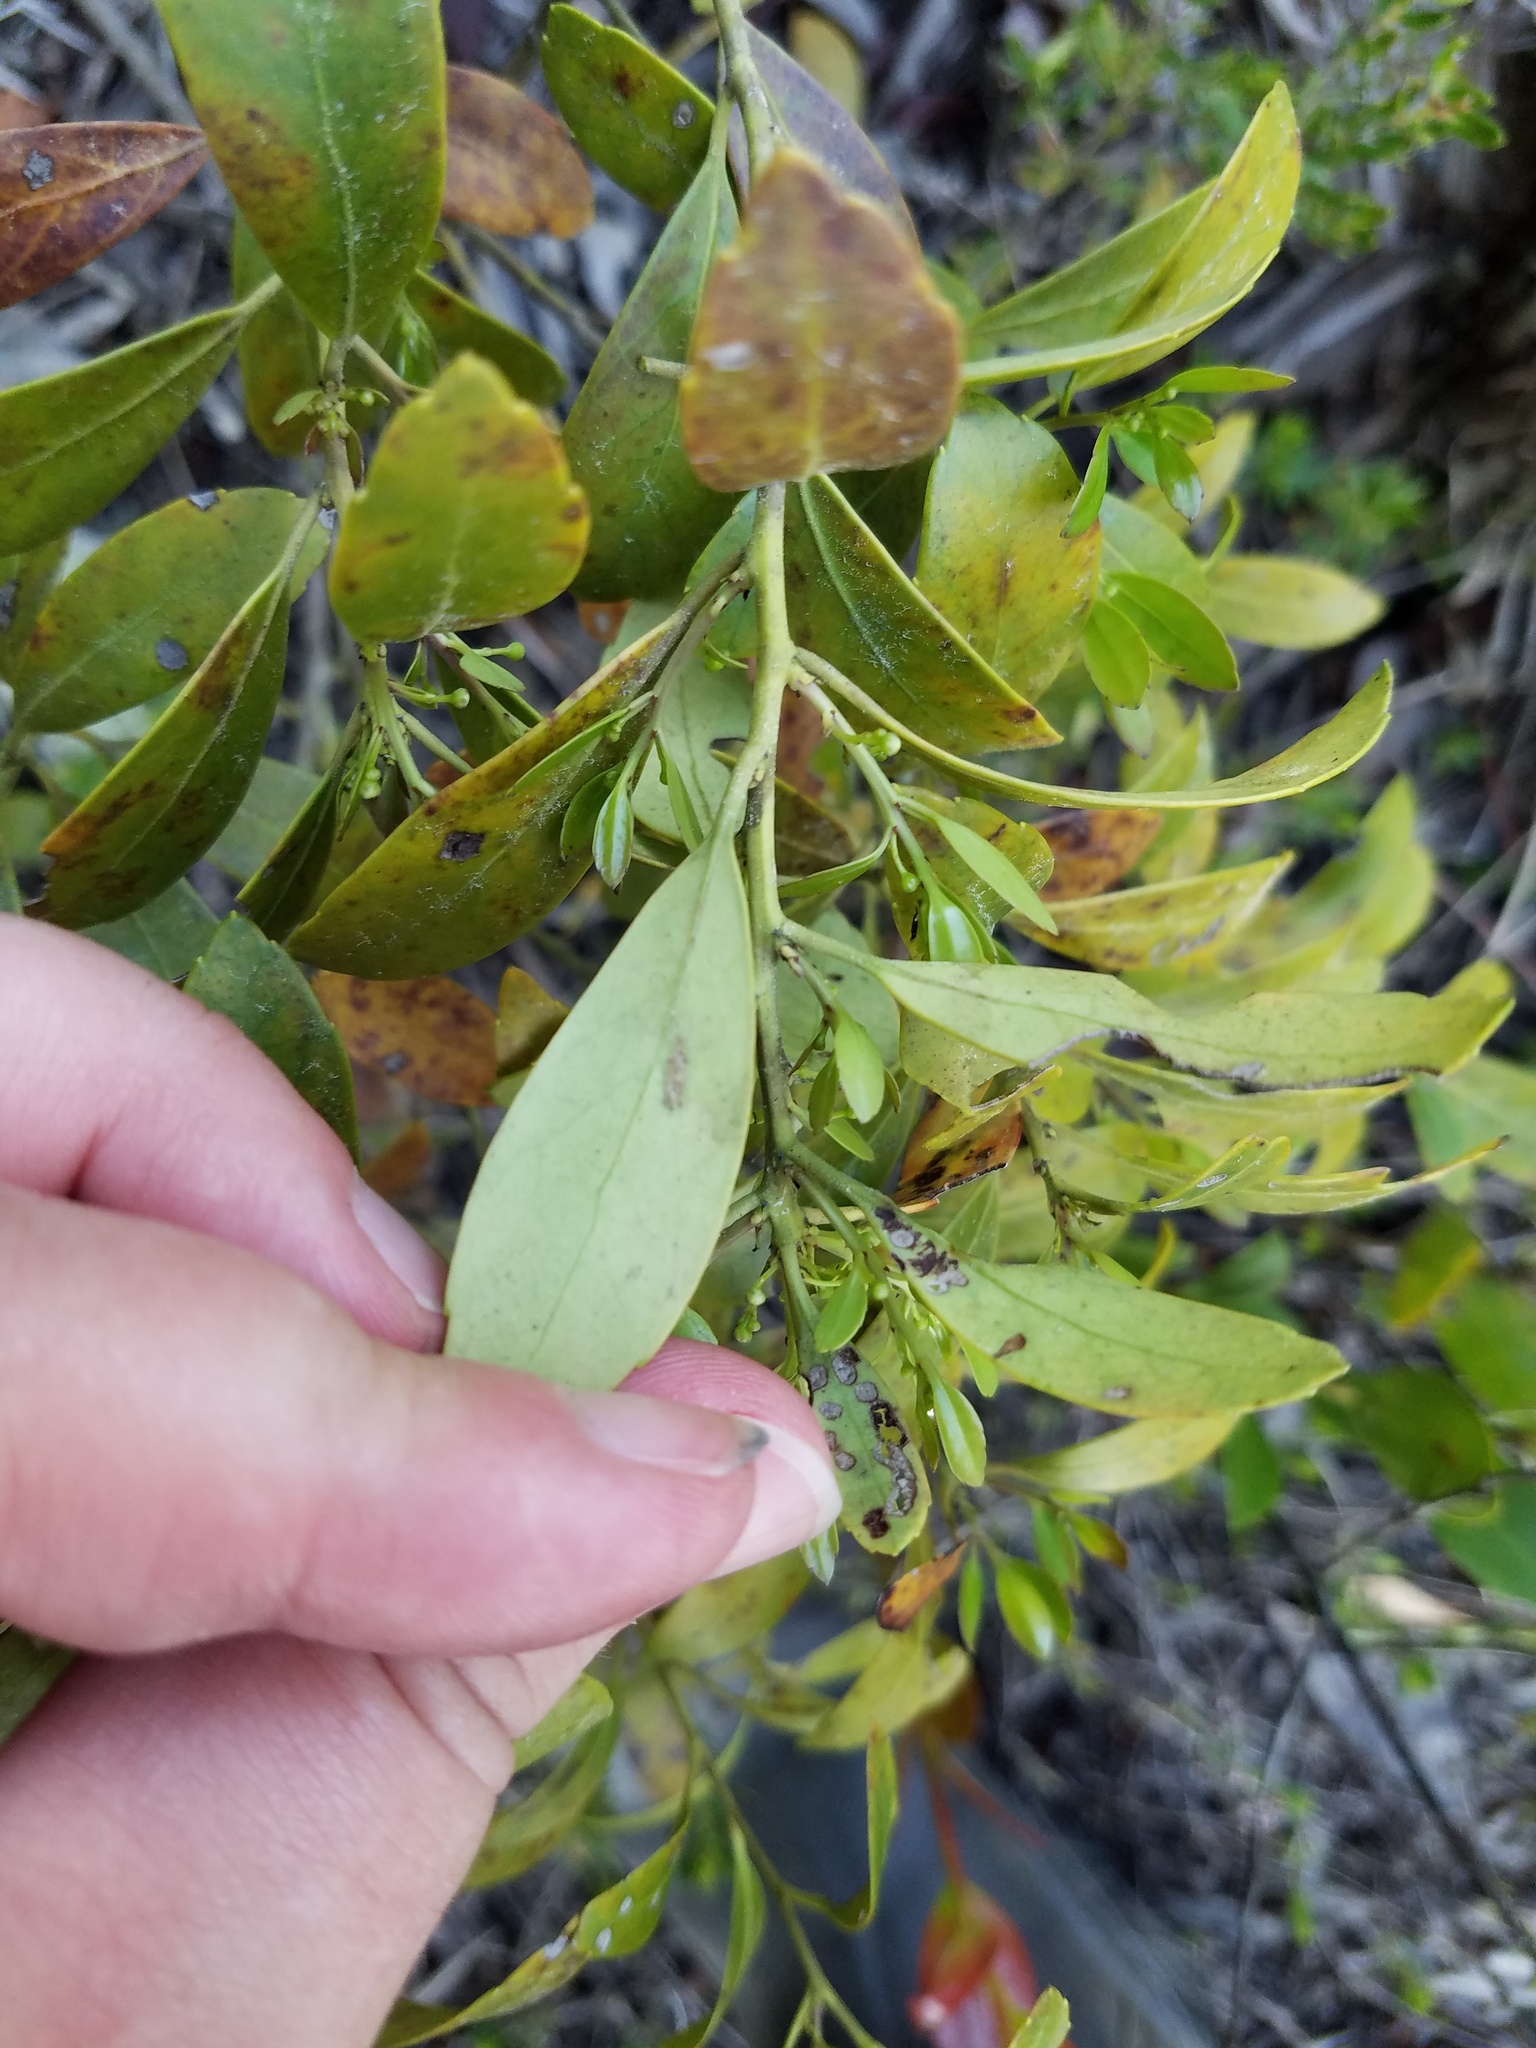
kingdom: Plantae
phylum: Tracheophyta
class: Magnoliopsida
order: Aquifoliales
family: Aquifoliaceae
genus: Ilex
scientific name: Ilex glabra
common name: Bitter gallberry
